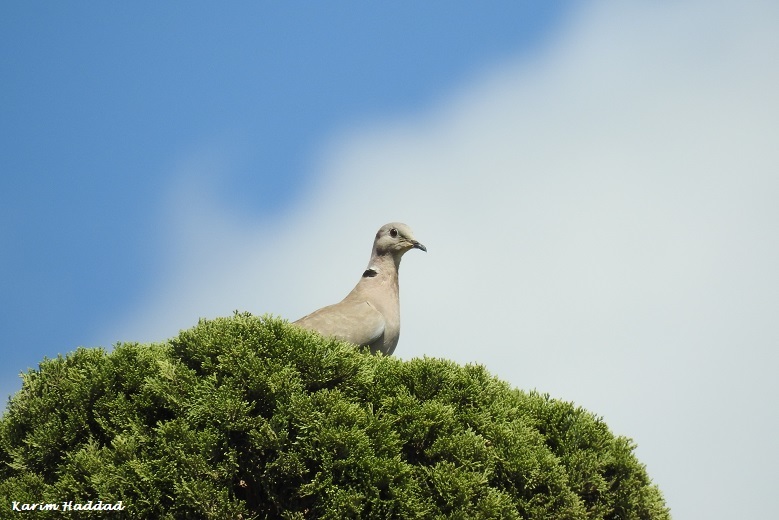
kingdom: Animalia
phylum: Chordata
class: Aves
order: Columbiformes
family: Columbidae
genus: Streptopelia
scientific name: Streptopelia decaocto
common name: Eurasian collared dove
